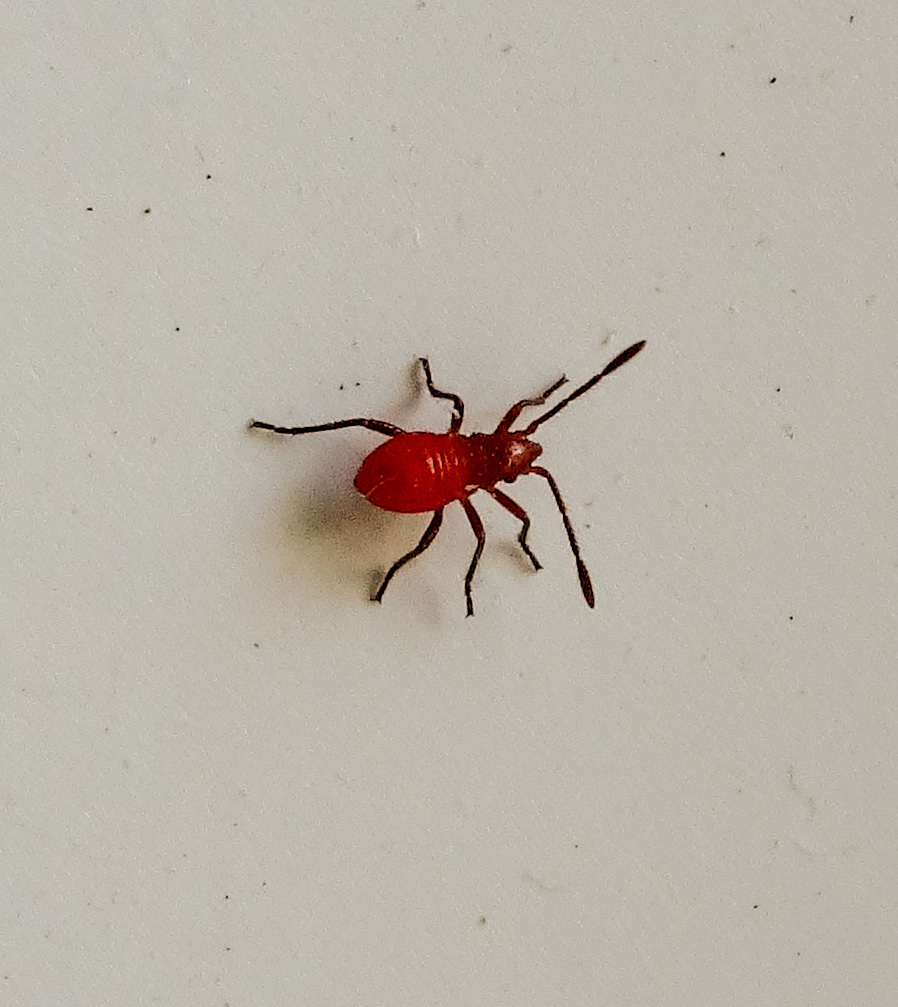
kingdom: Animalia
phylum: Arthropoda
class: Insecta
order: Hemiptera
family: Rhopalidae
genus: Boisea
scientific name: Boisea trivittata
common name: Boxelder bug
